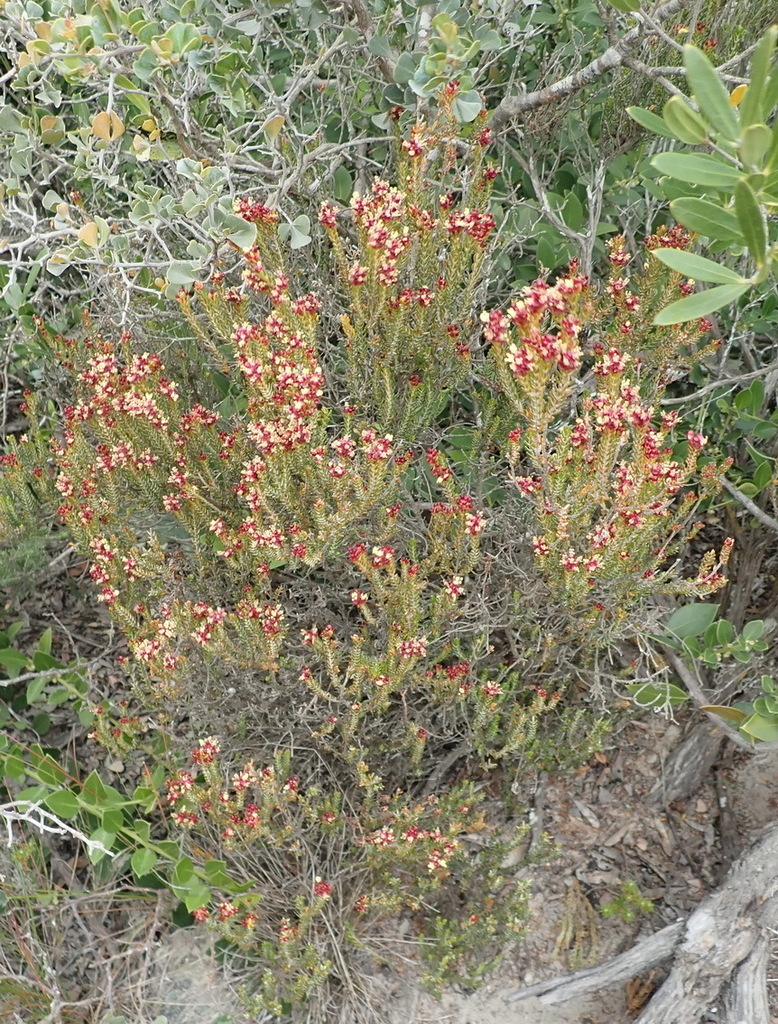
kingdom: Plantae
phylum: Tracheophyta
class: Magnoliopsida
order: Malvales
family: Thymelaeaceae
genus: Passerina
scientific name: Passerina galpinii
